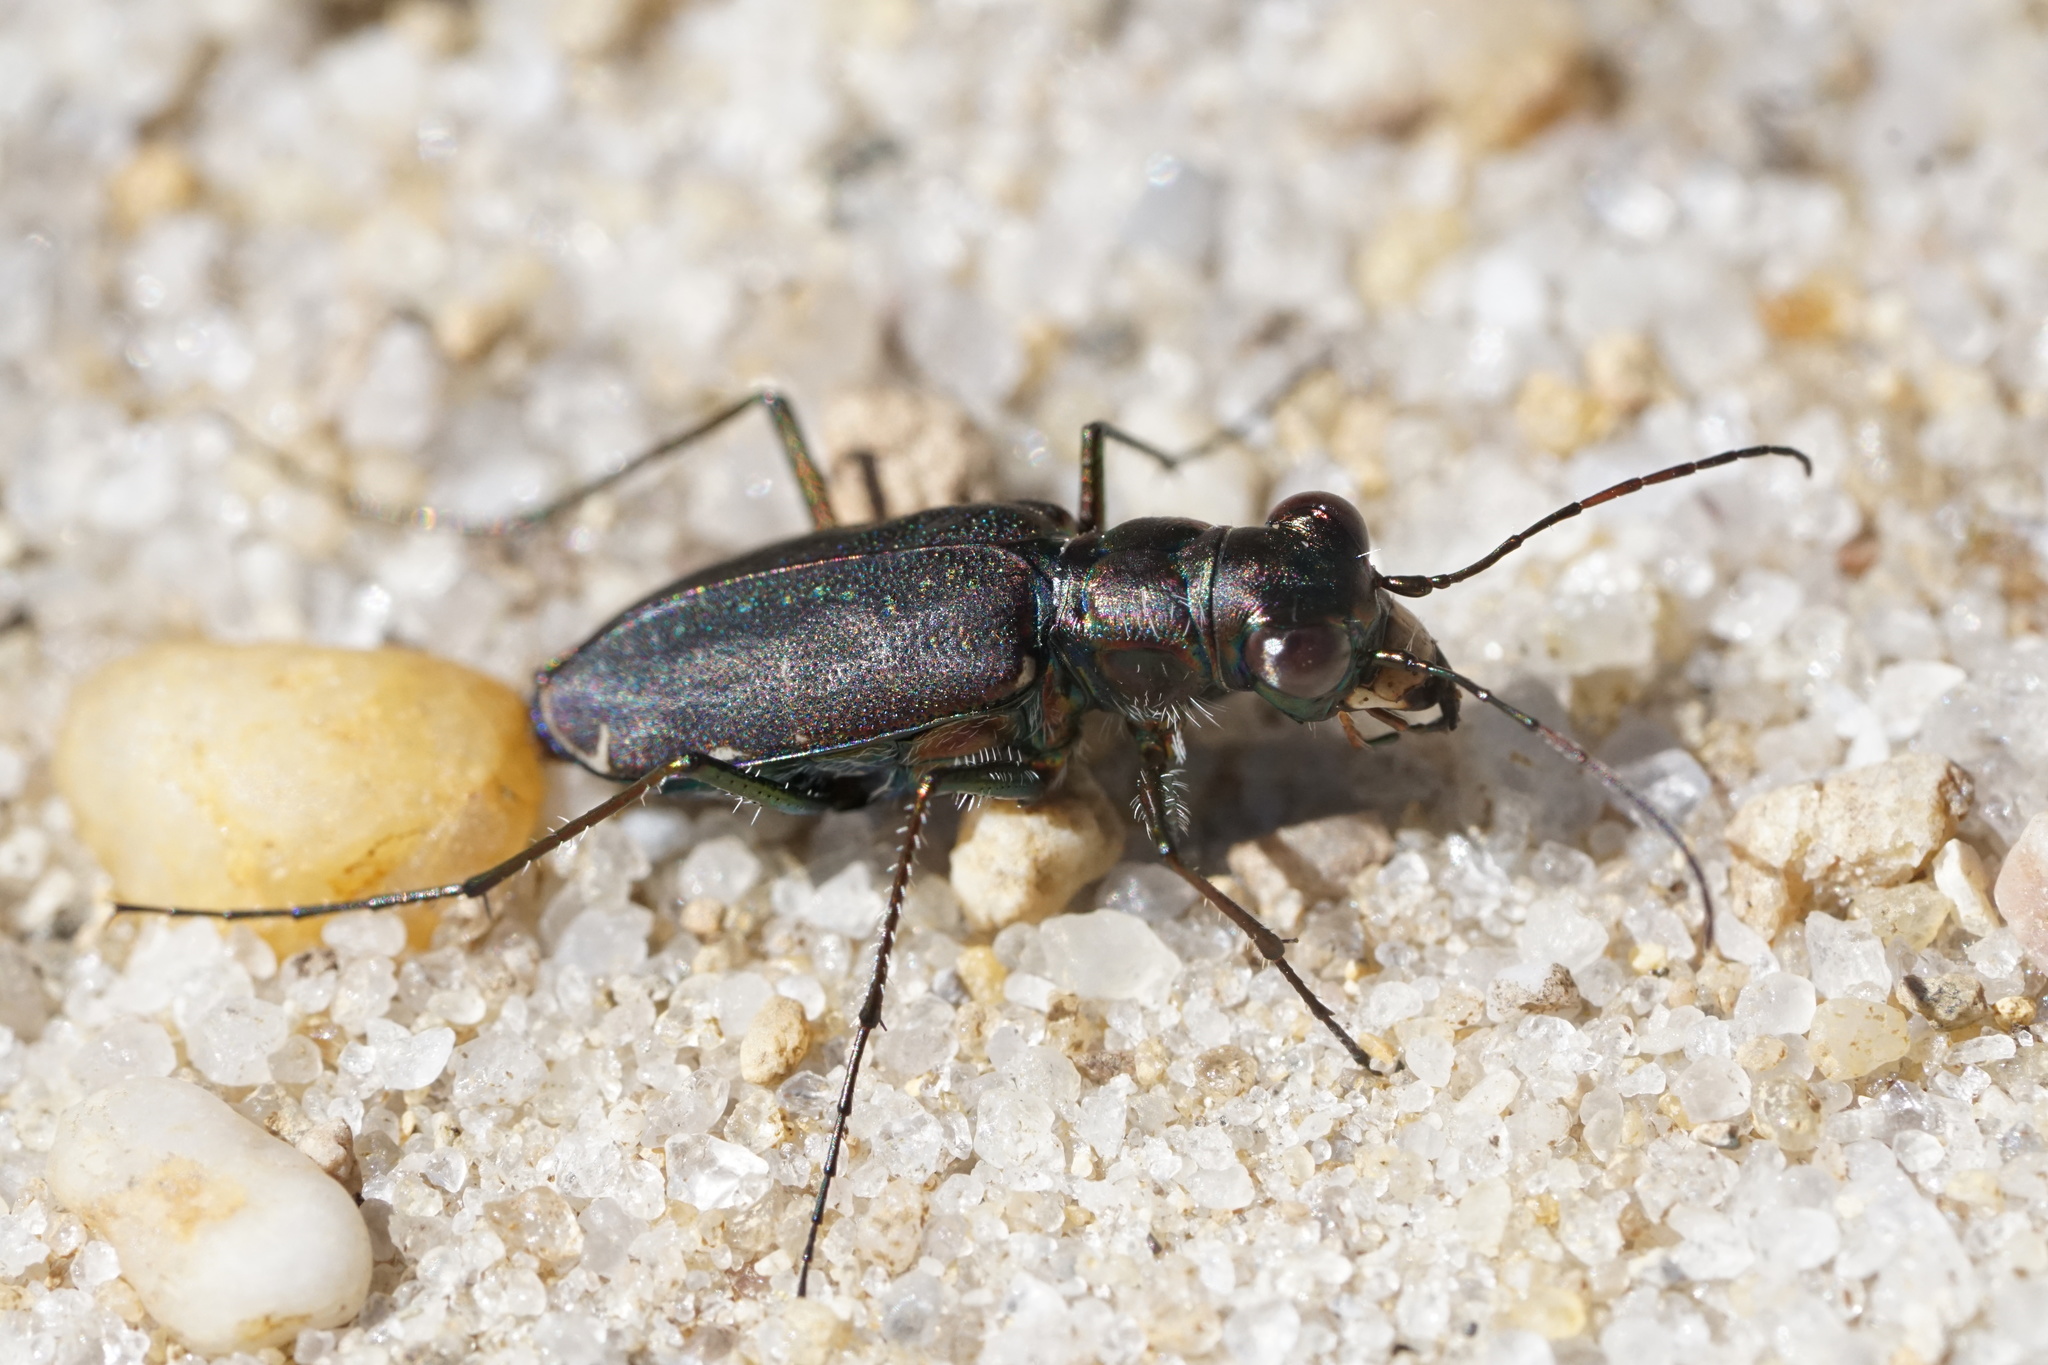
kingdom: Animalia
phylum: Arthropoda
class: Insecta
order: Coleoptera
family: Carabidae
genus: Cicindela
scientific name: Cicindela punctulata
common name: Punctured tiger beetle
